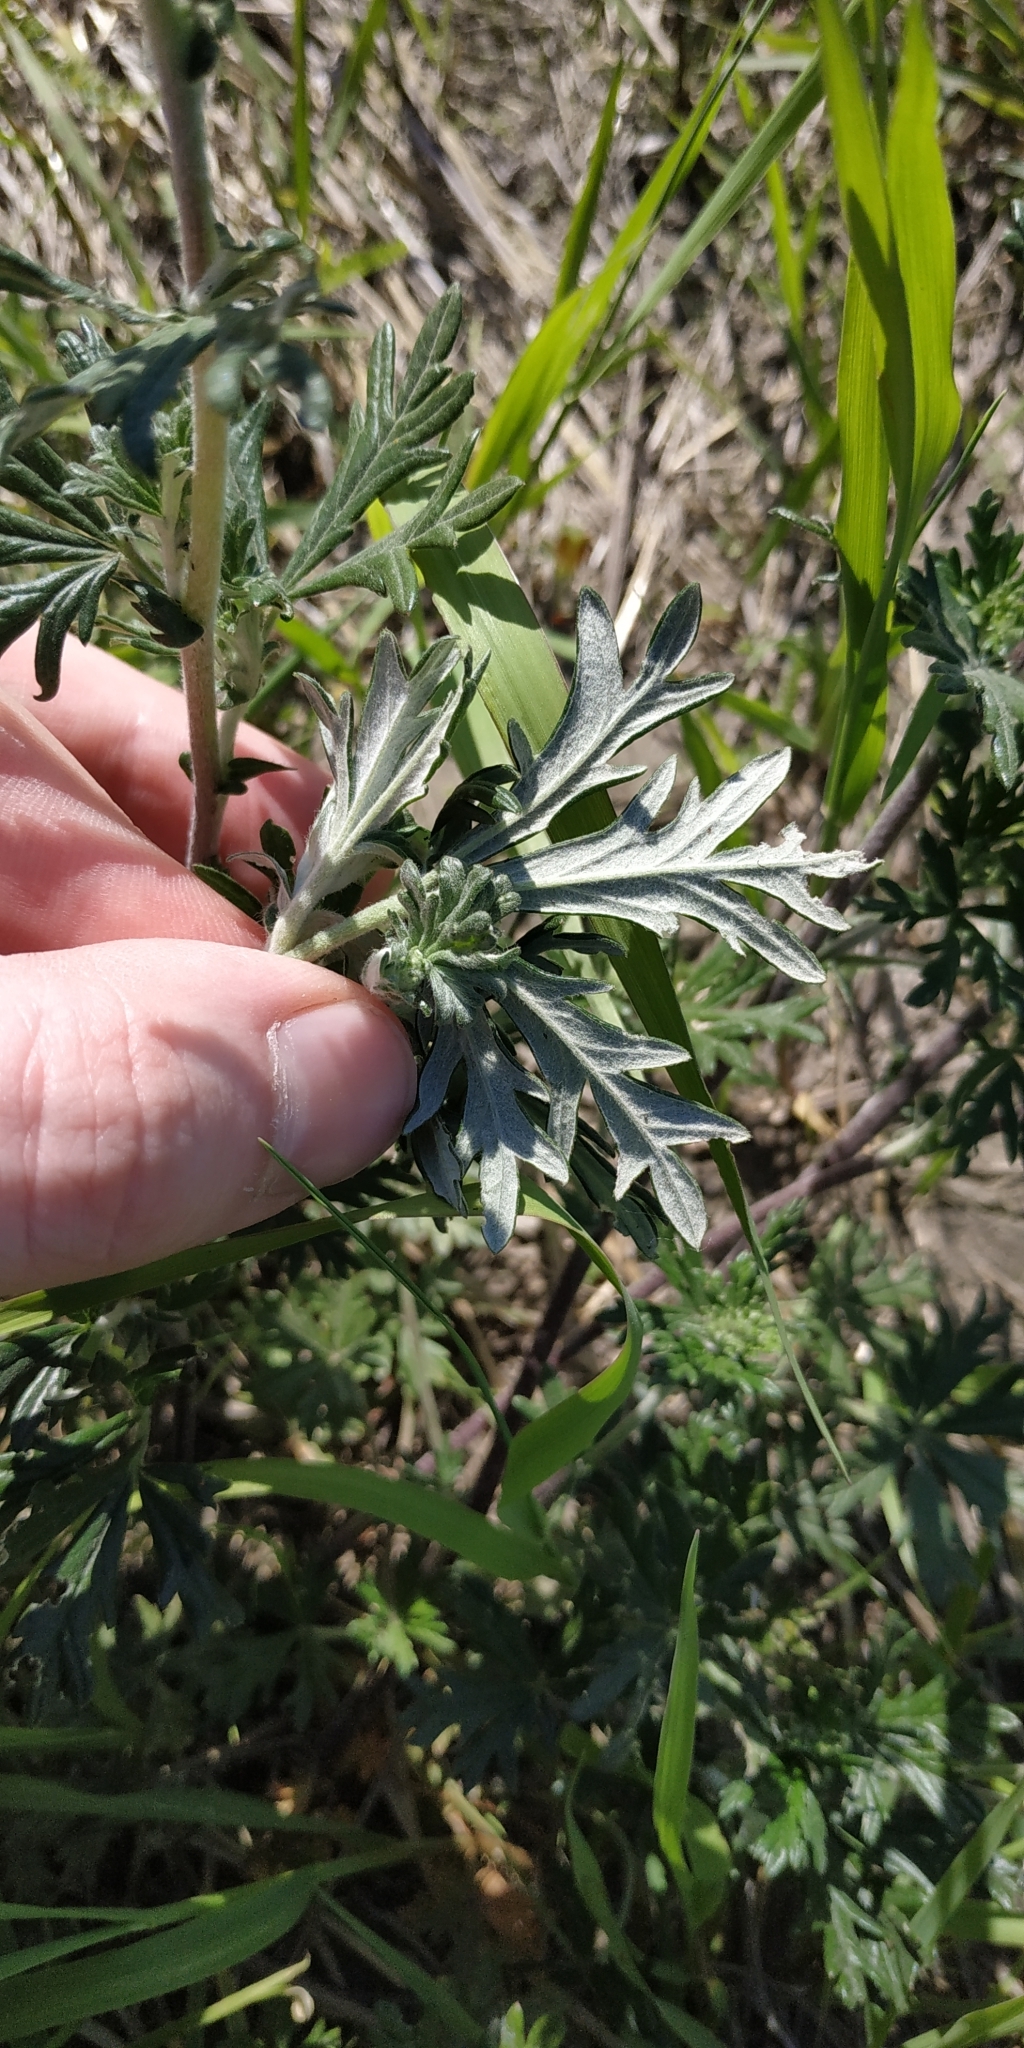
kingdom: Plantae
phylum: Tracheophyta
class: Magnoliopsida
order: Rosales
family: Rosaceae
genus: Potentilla
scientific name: Potentilla argentea
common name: Hoary cinquefoil
